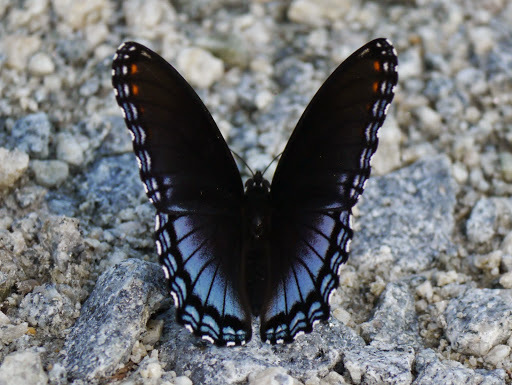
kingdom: Animalia
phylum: Arthropoda
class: Insecta
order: Lepidoptera
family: Nymphalidae
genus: Limenitis
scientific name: Limenitis astyanax
